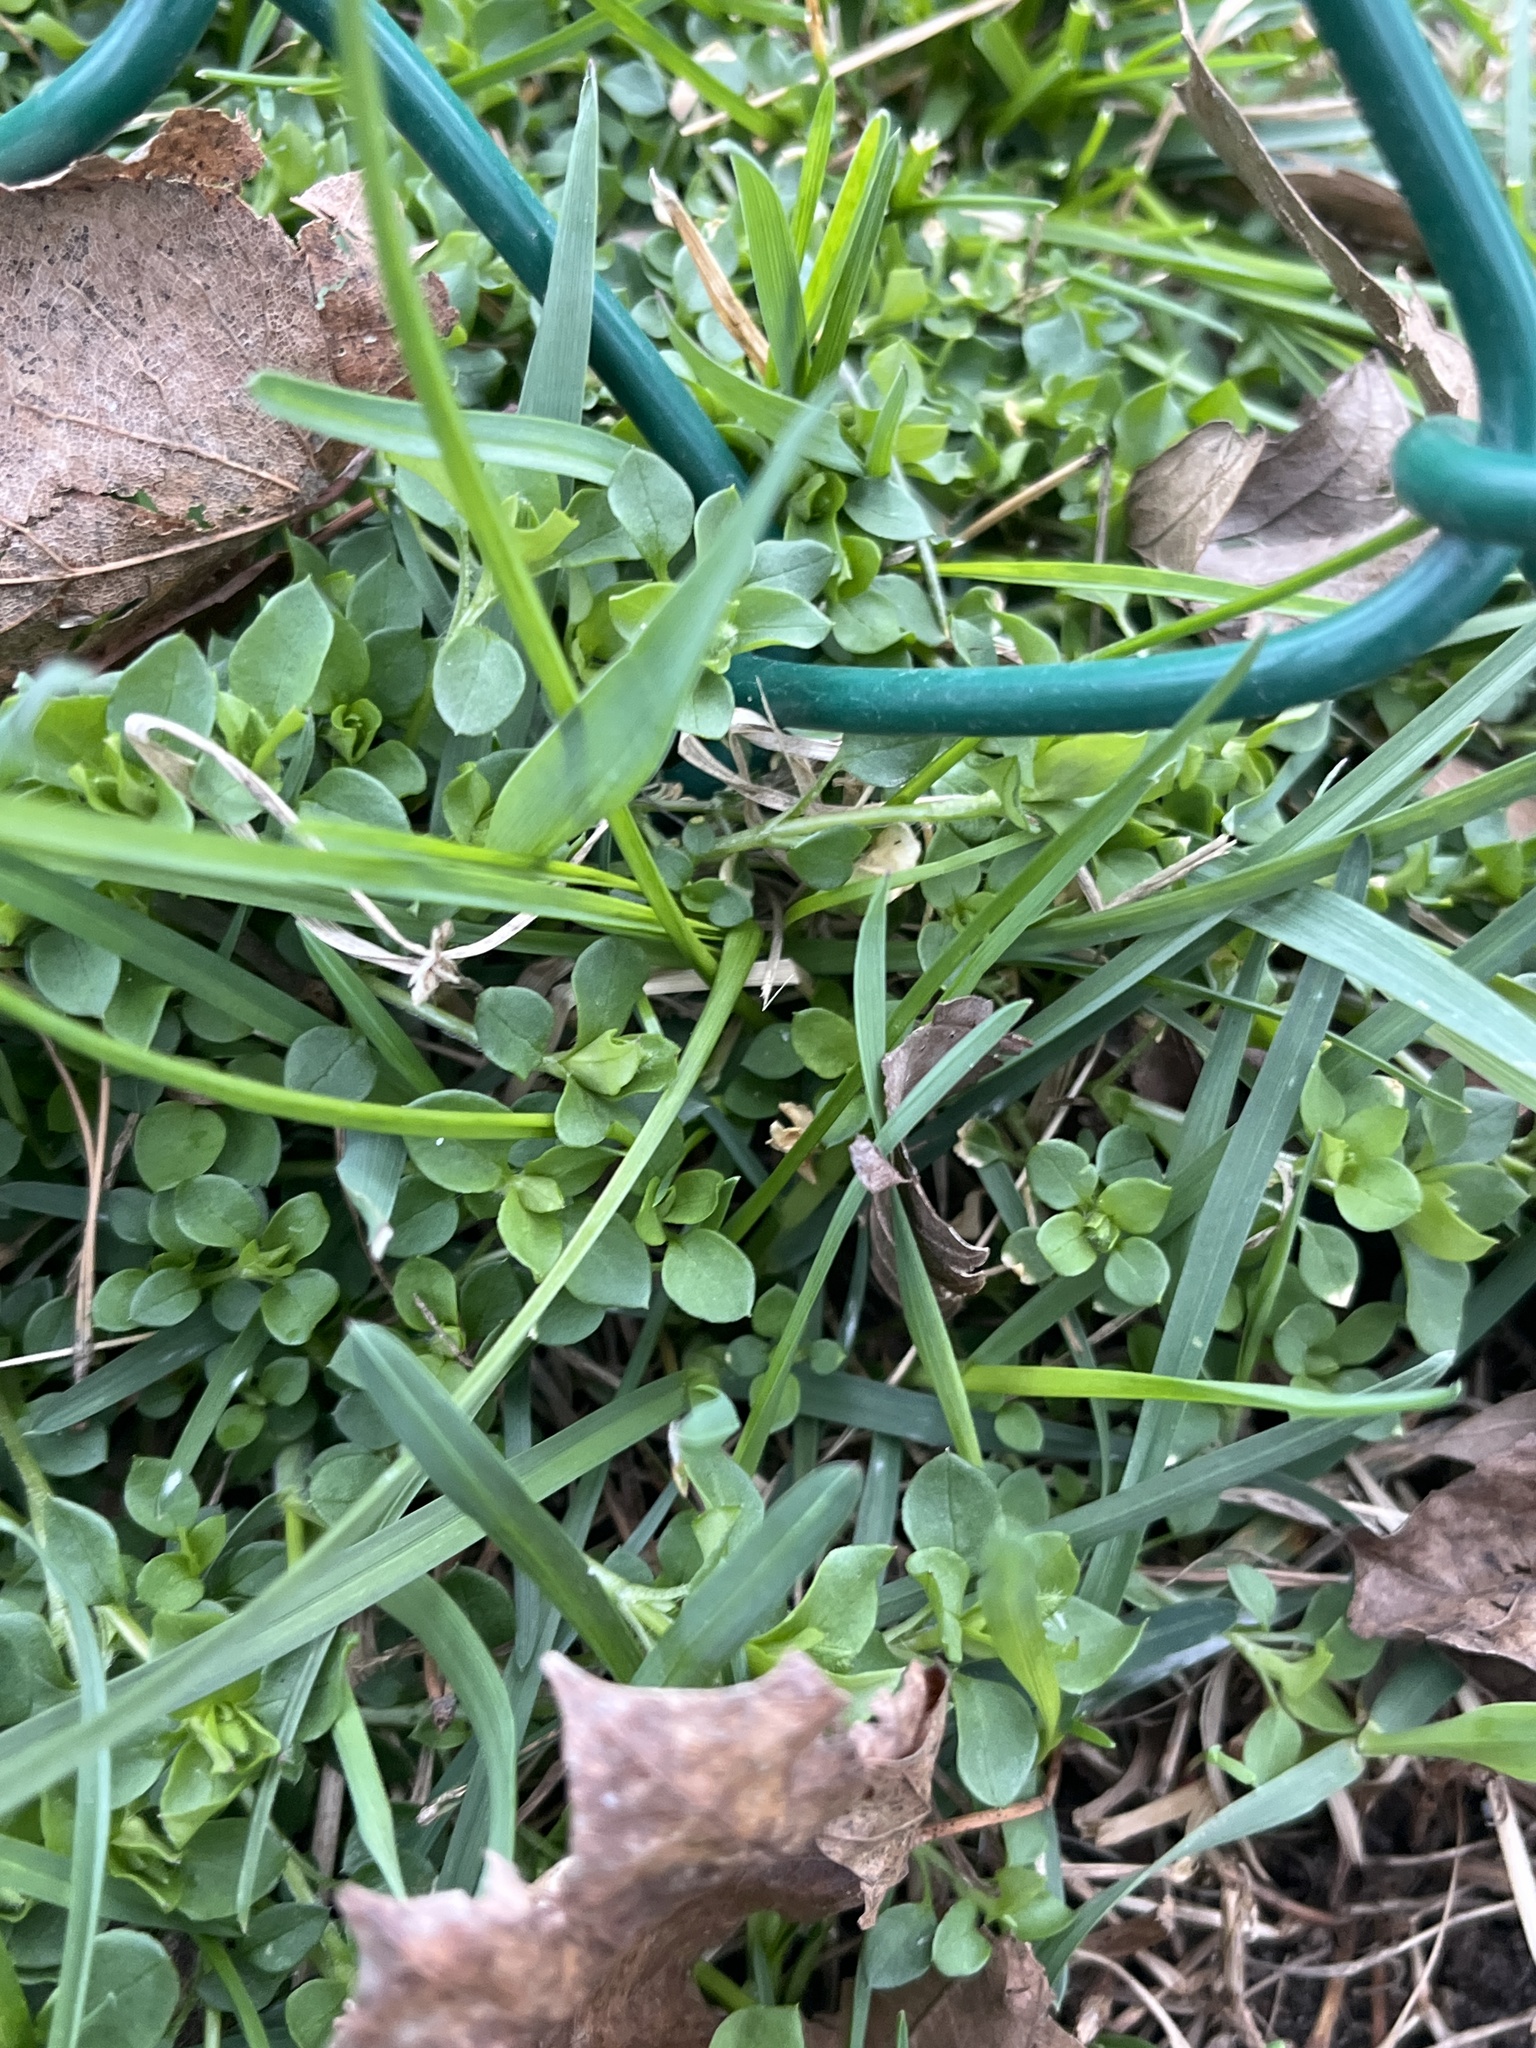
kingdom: Plantae
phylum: Tracheophyta
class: Magnoliopsida
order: Caryophyllales
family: Caryophyllaceae
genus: Stellaria
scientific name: Stellaria media
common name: Common chickweed
